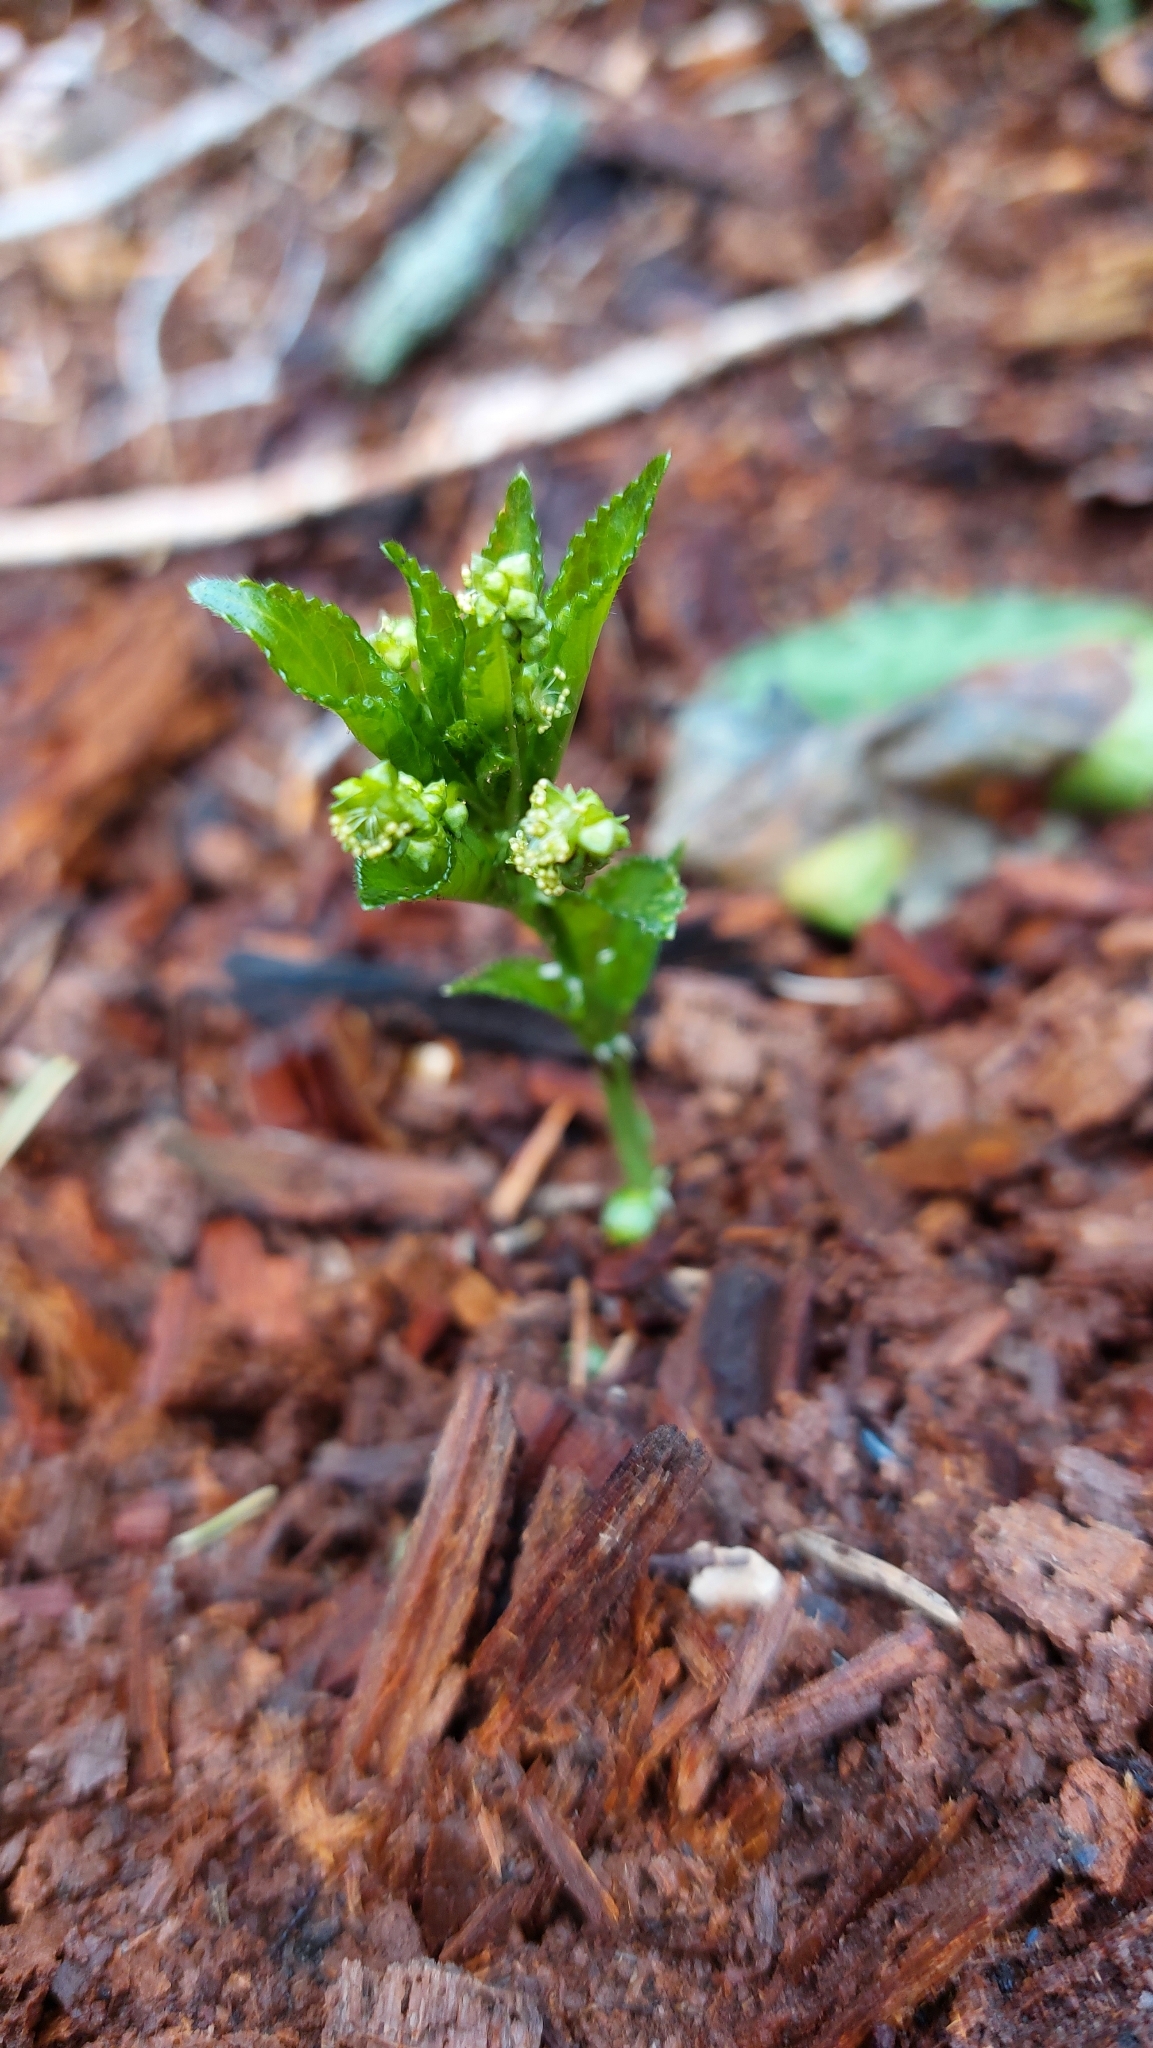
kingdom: Plantae
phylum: Tracheophyta
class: Magnoliopsida
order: Malpighiales
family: Euphorbiaceae
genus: Mercurialis
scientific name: Mercurialis perennis
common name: Dog mercury
